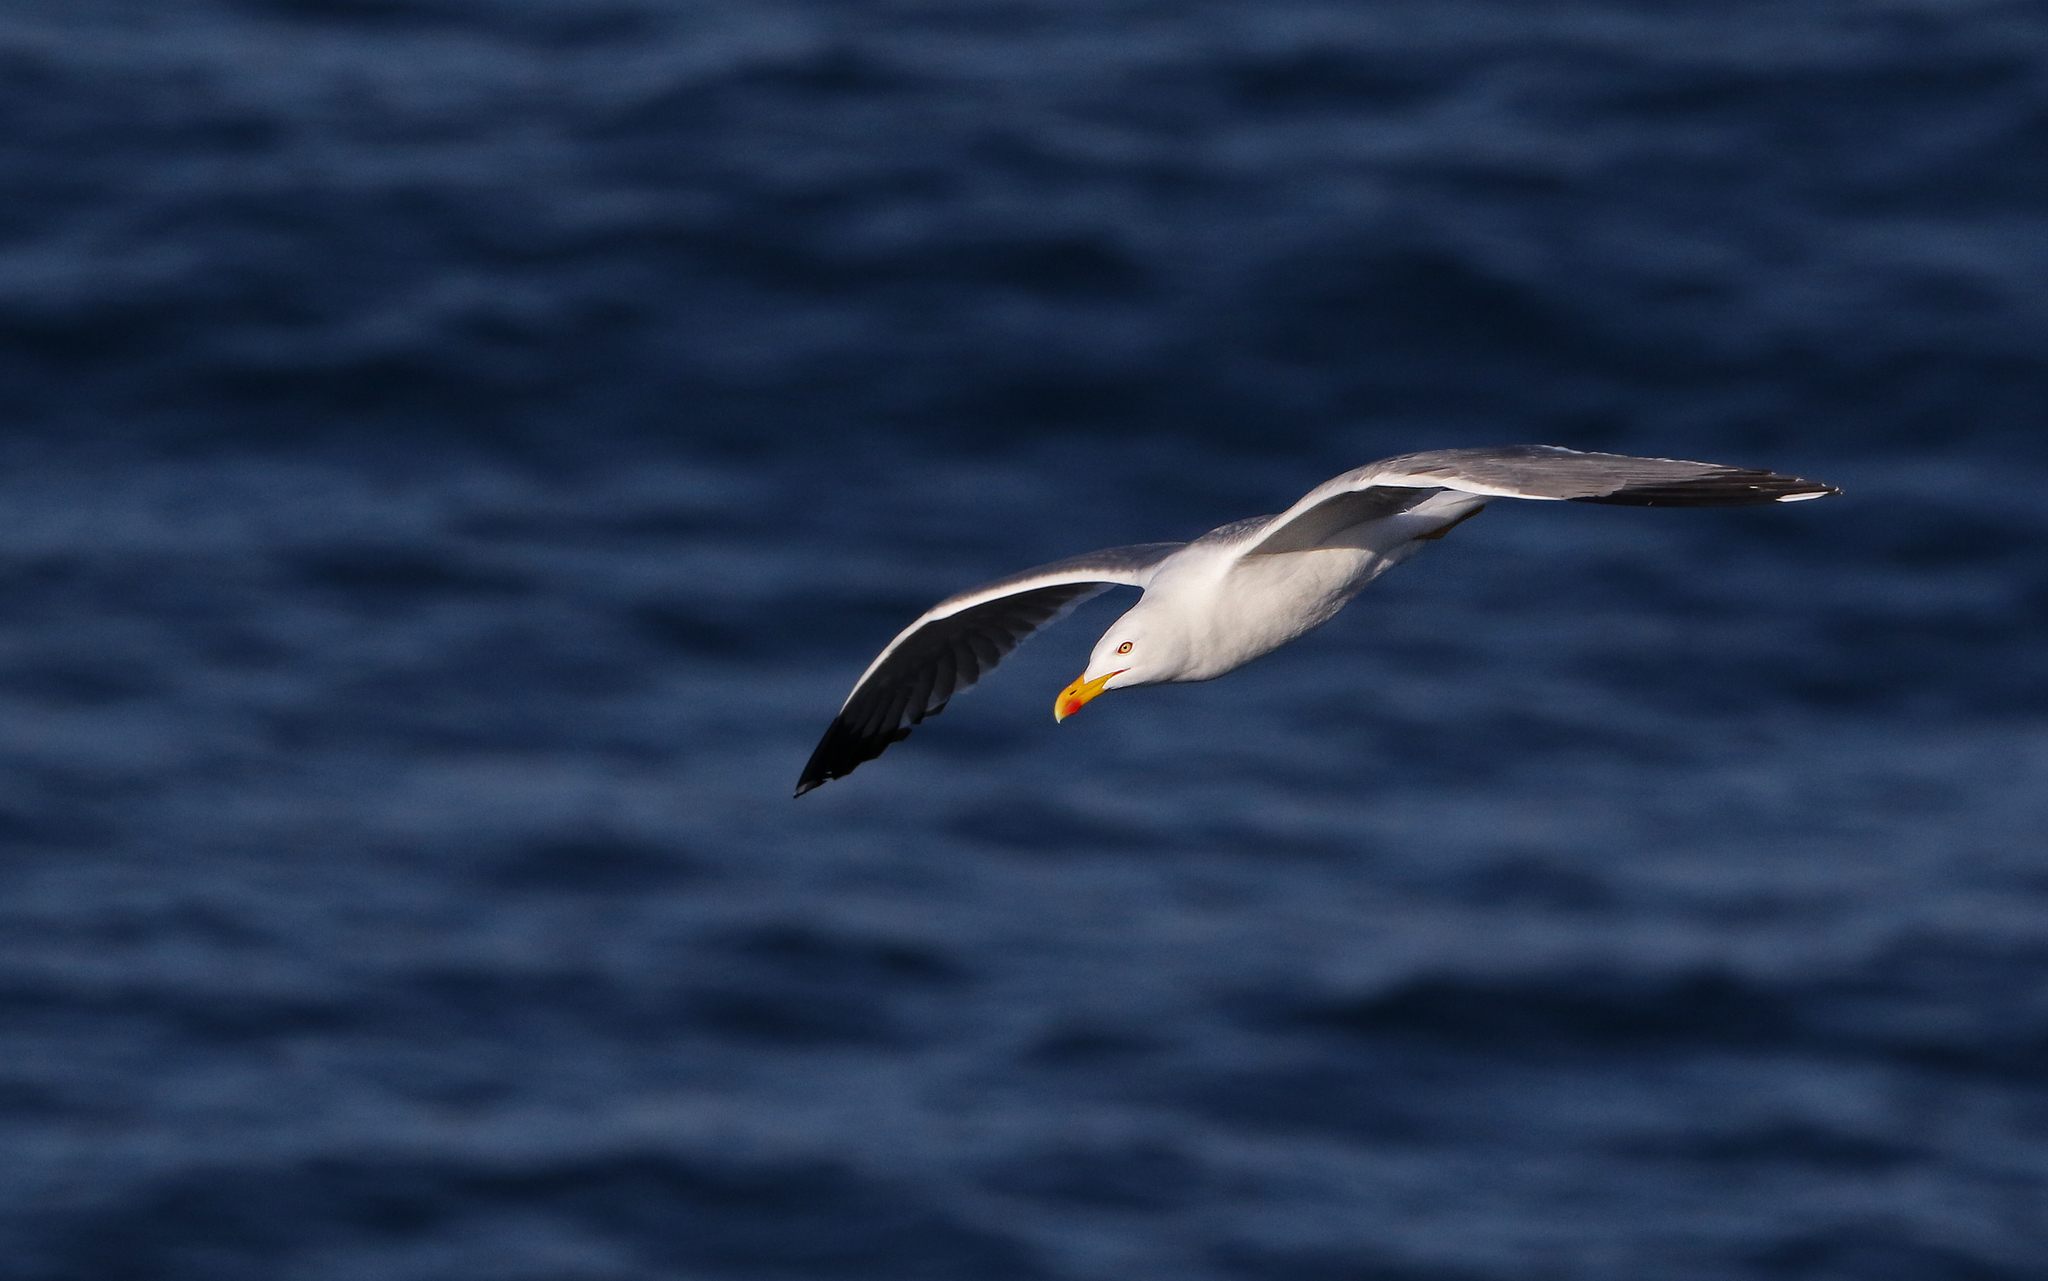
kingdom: Animalia
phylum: Chordata
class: Aves
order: Charadriiformes
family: Laridae
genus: Larus
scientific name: Larus michahellis
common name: Yellow-legged gull
